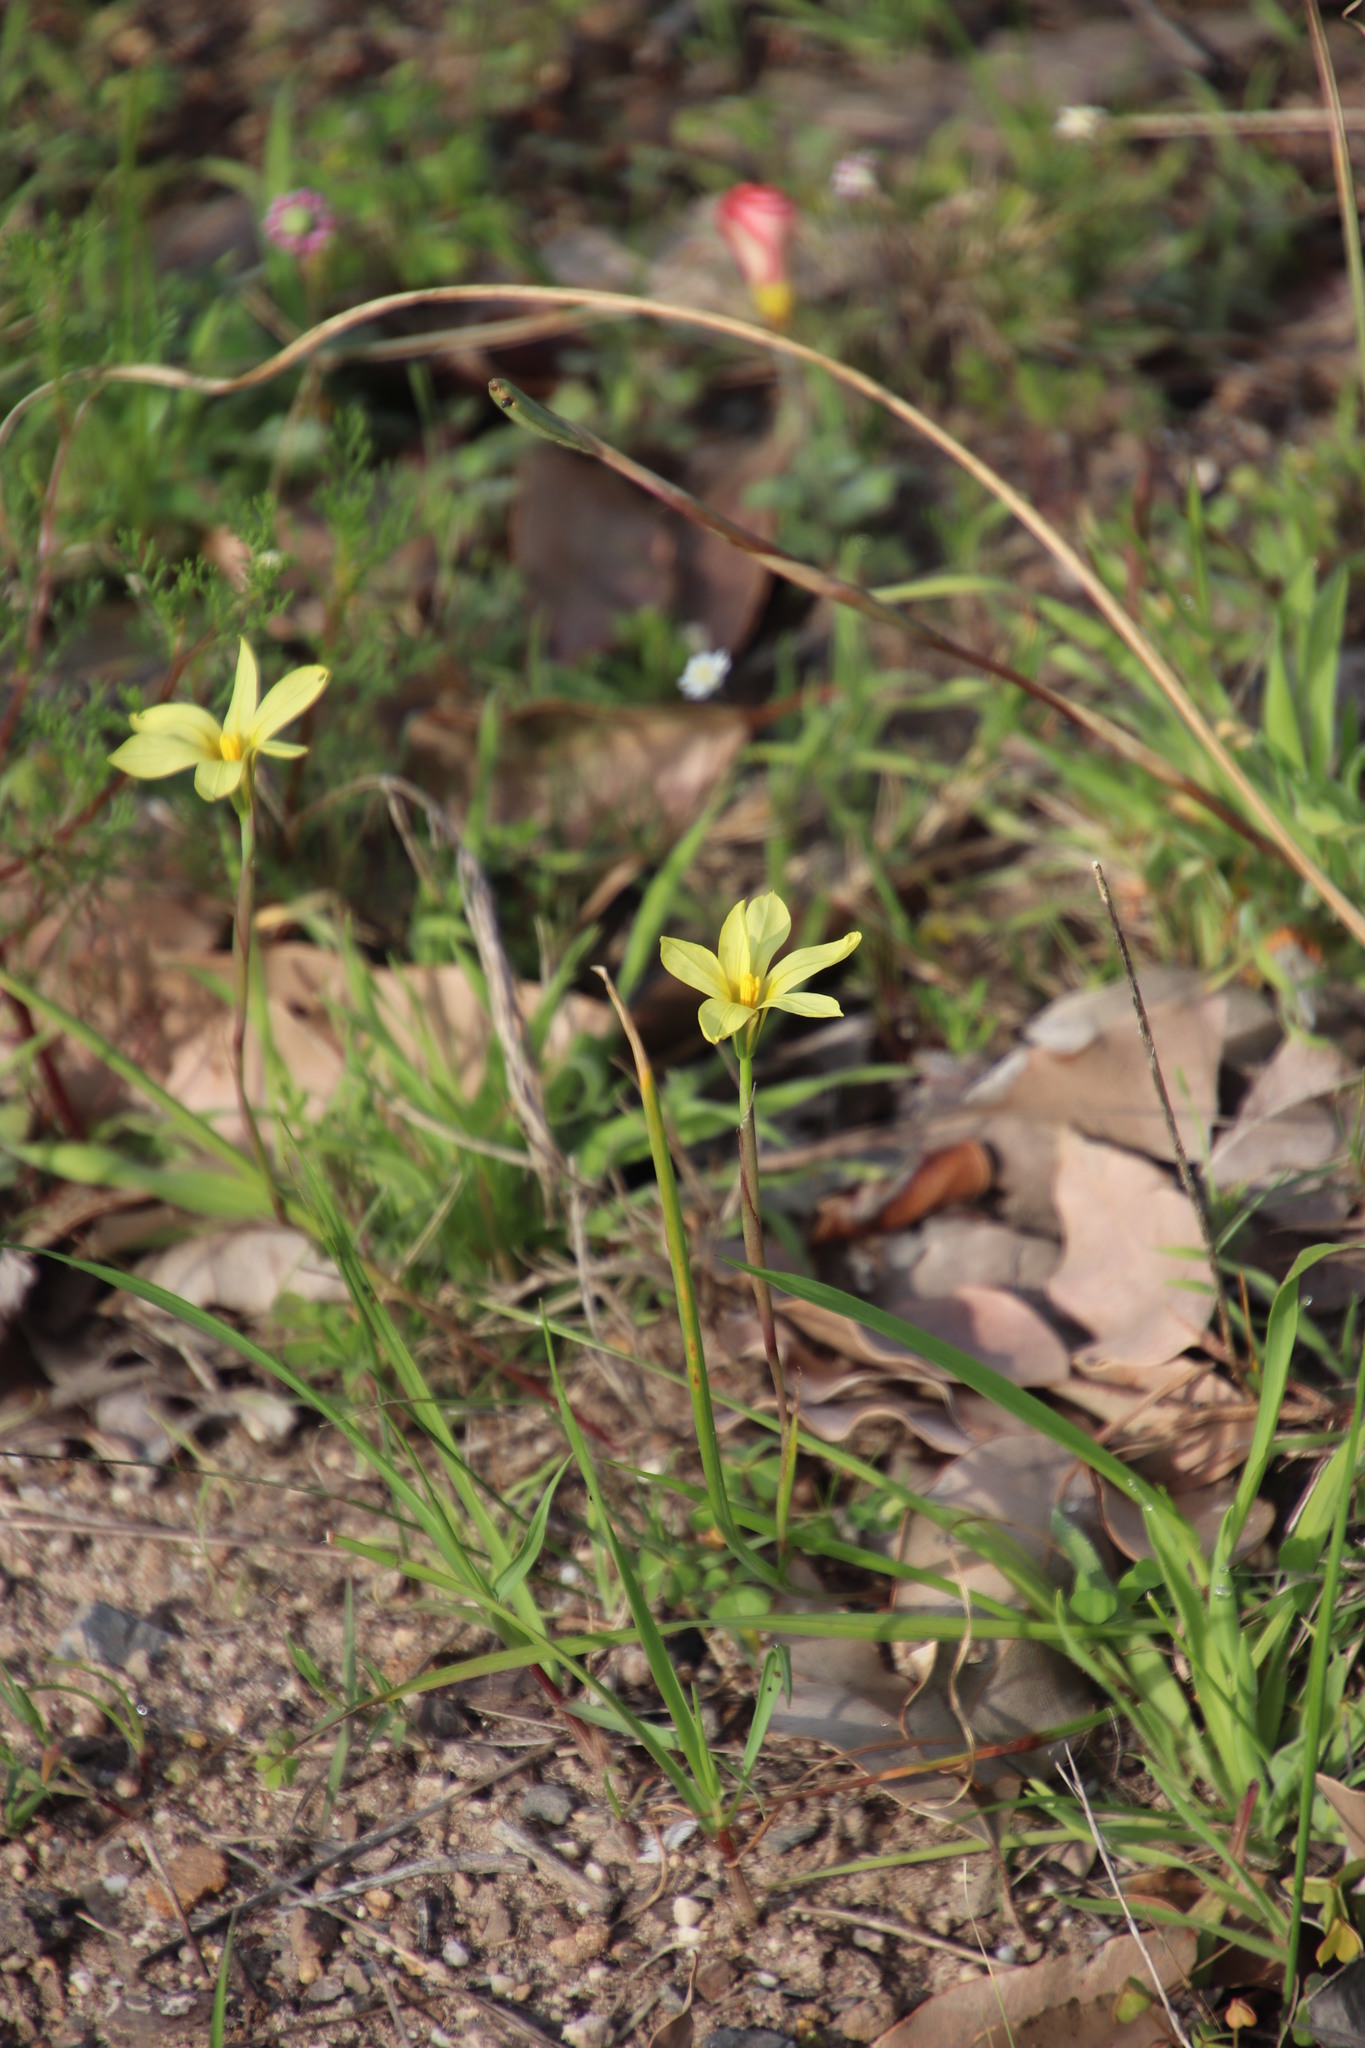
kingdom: Plantae
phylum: Tracheophyta
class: Liliopsida
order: Asparagales
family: Iridaceae
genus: Moraea
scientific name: Moraea collina
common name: Cape-tulip
